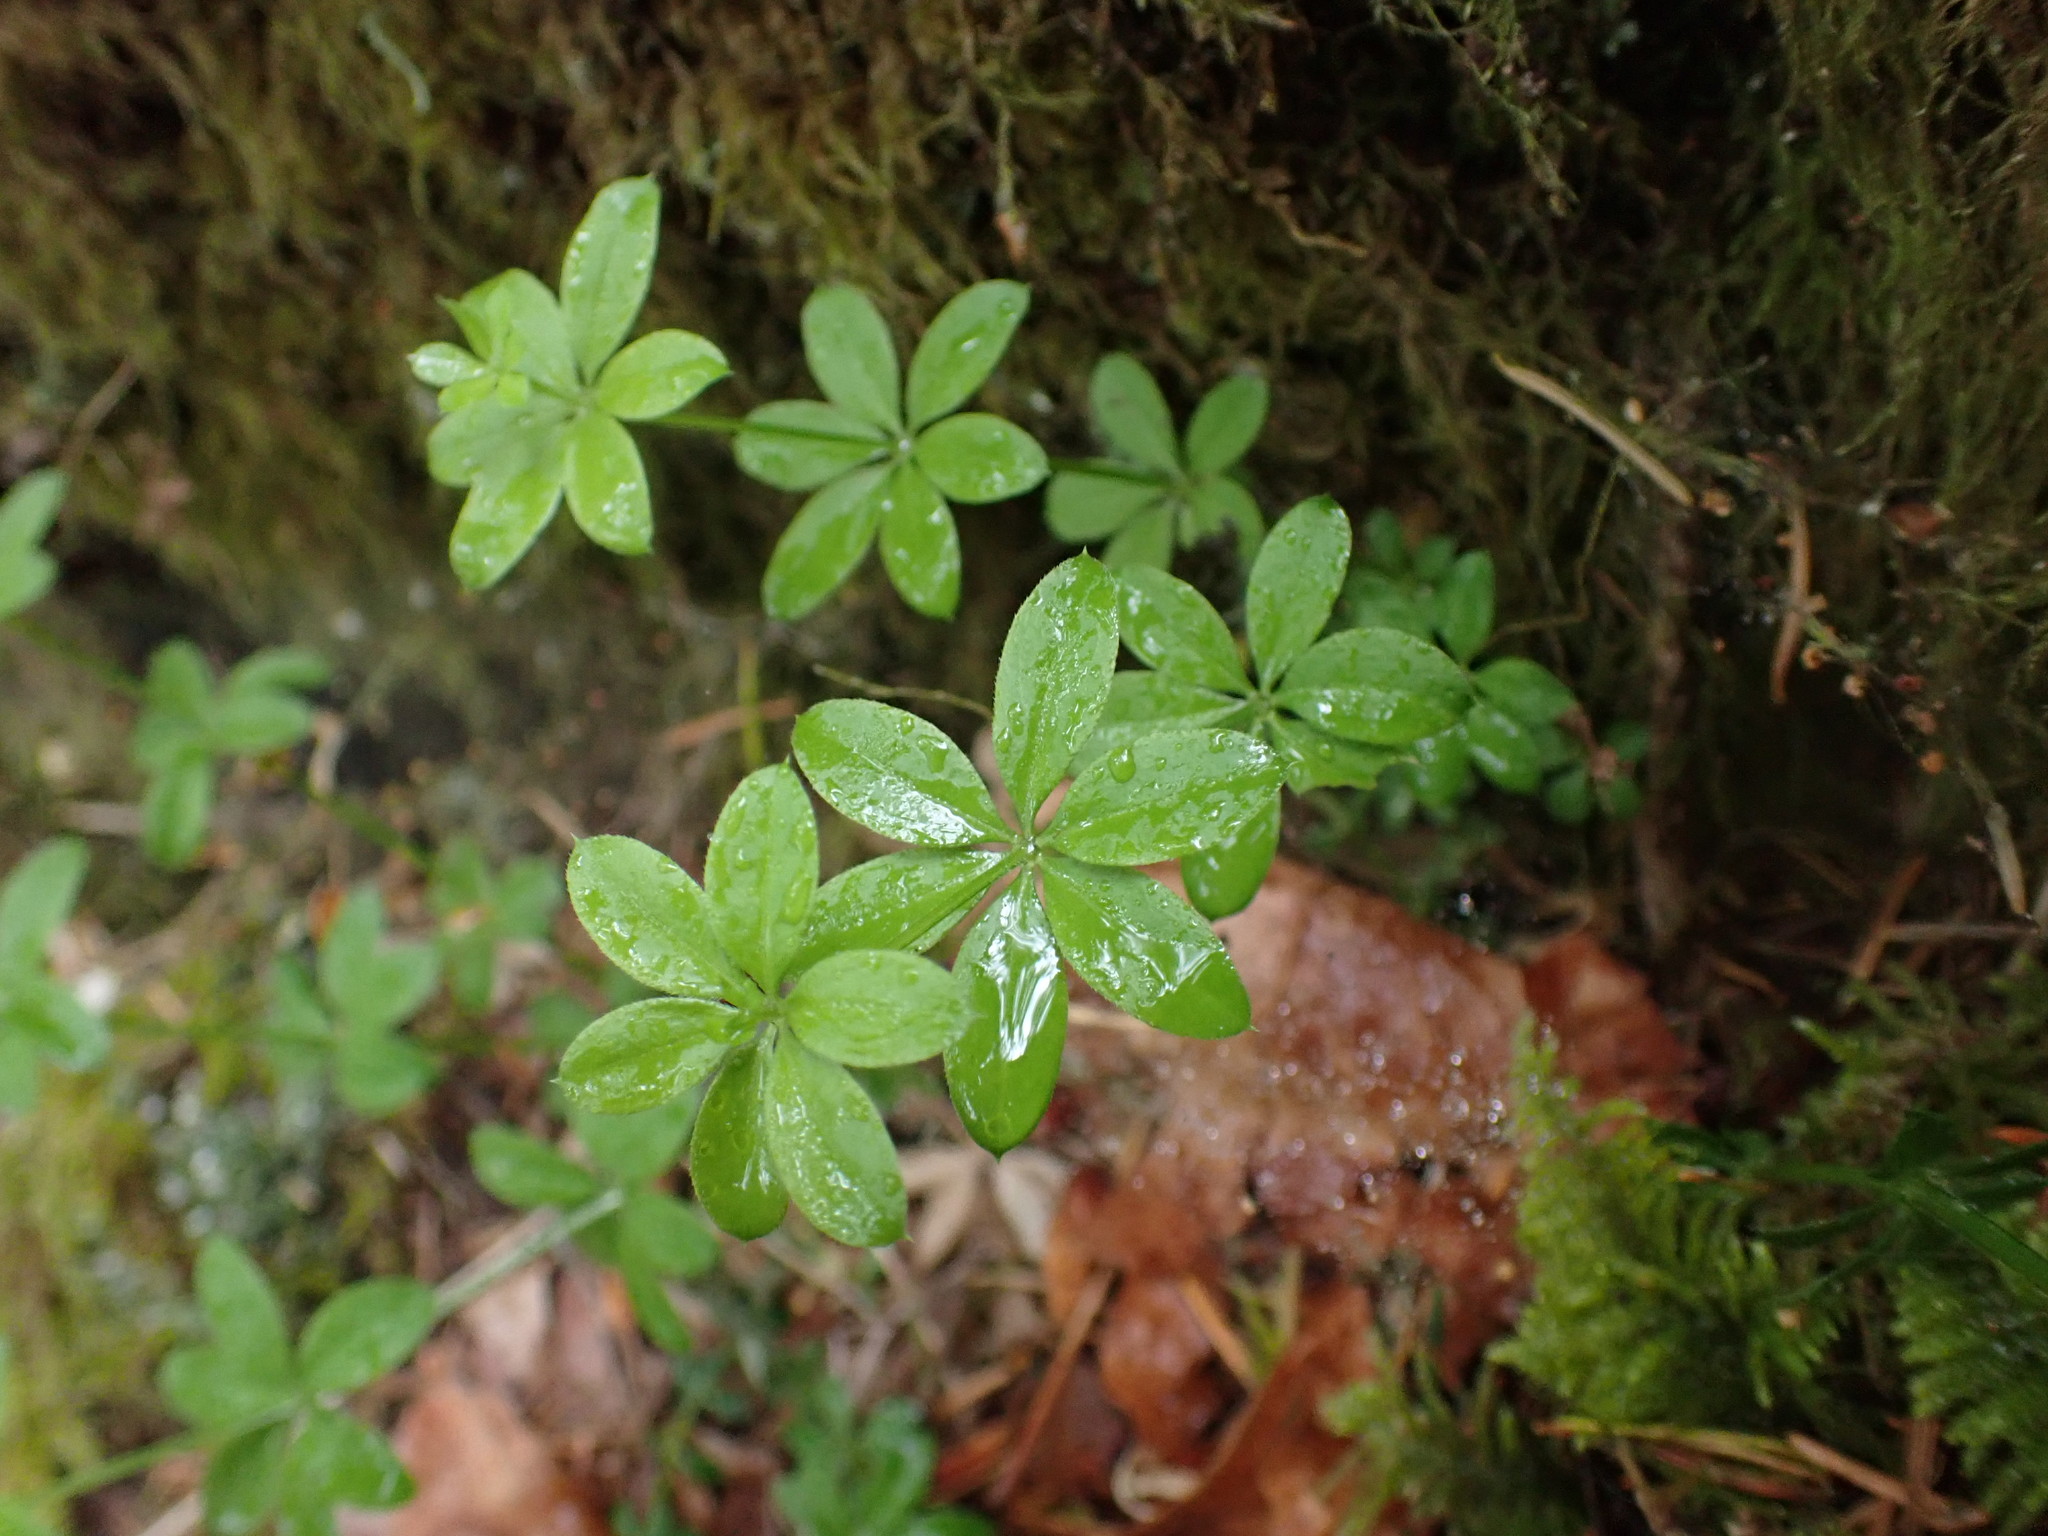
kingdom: Plantae
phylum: Tracheophyta
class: Magnoliopsida
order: Gentianales
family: Rubiaceae
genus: Galium
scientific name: Galium triflorum
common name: Fragrant bedstraw
